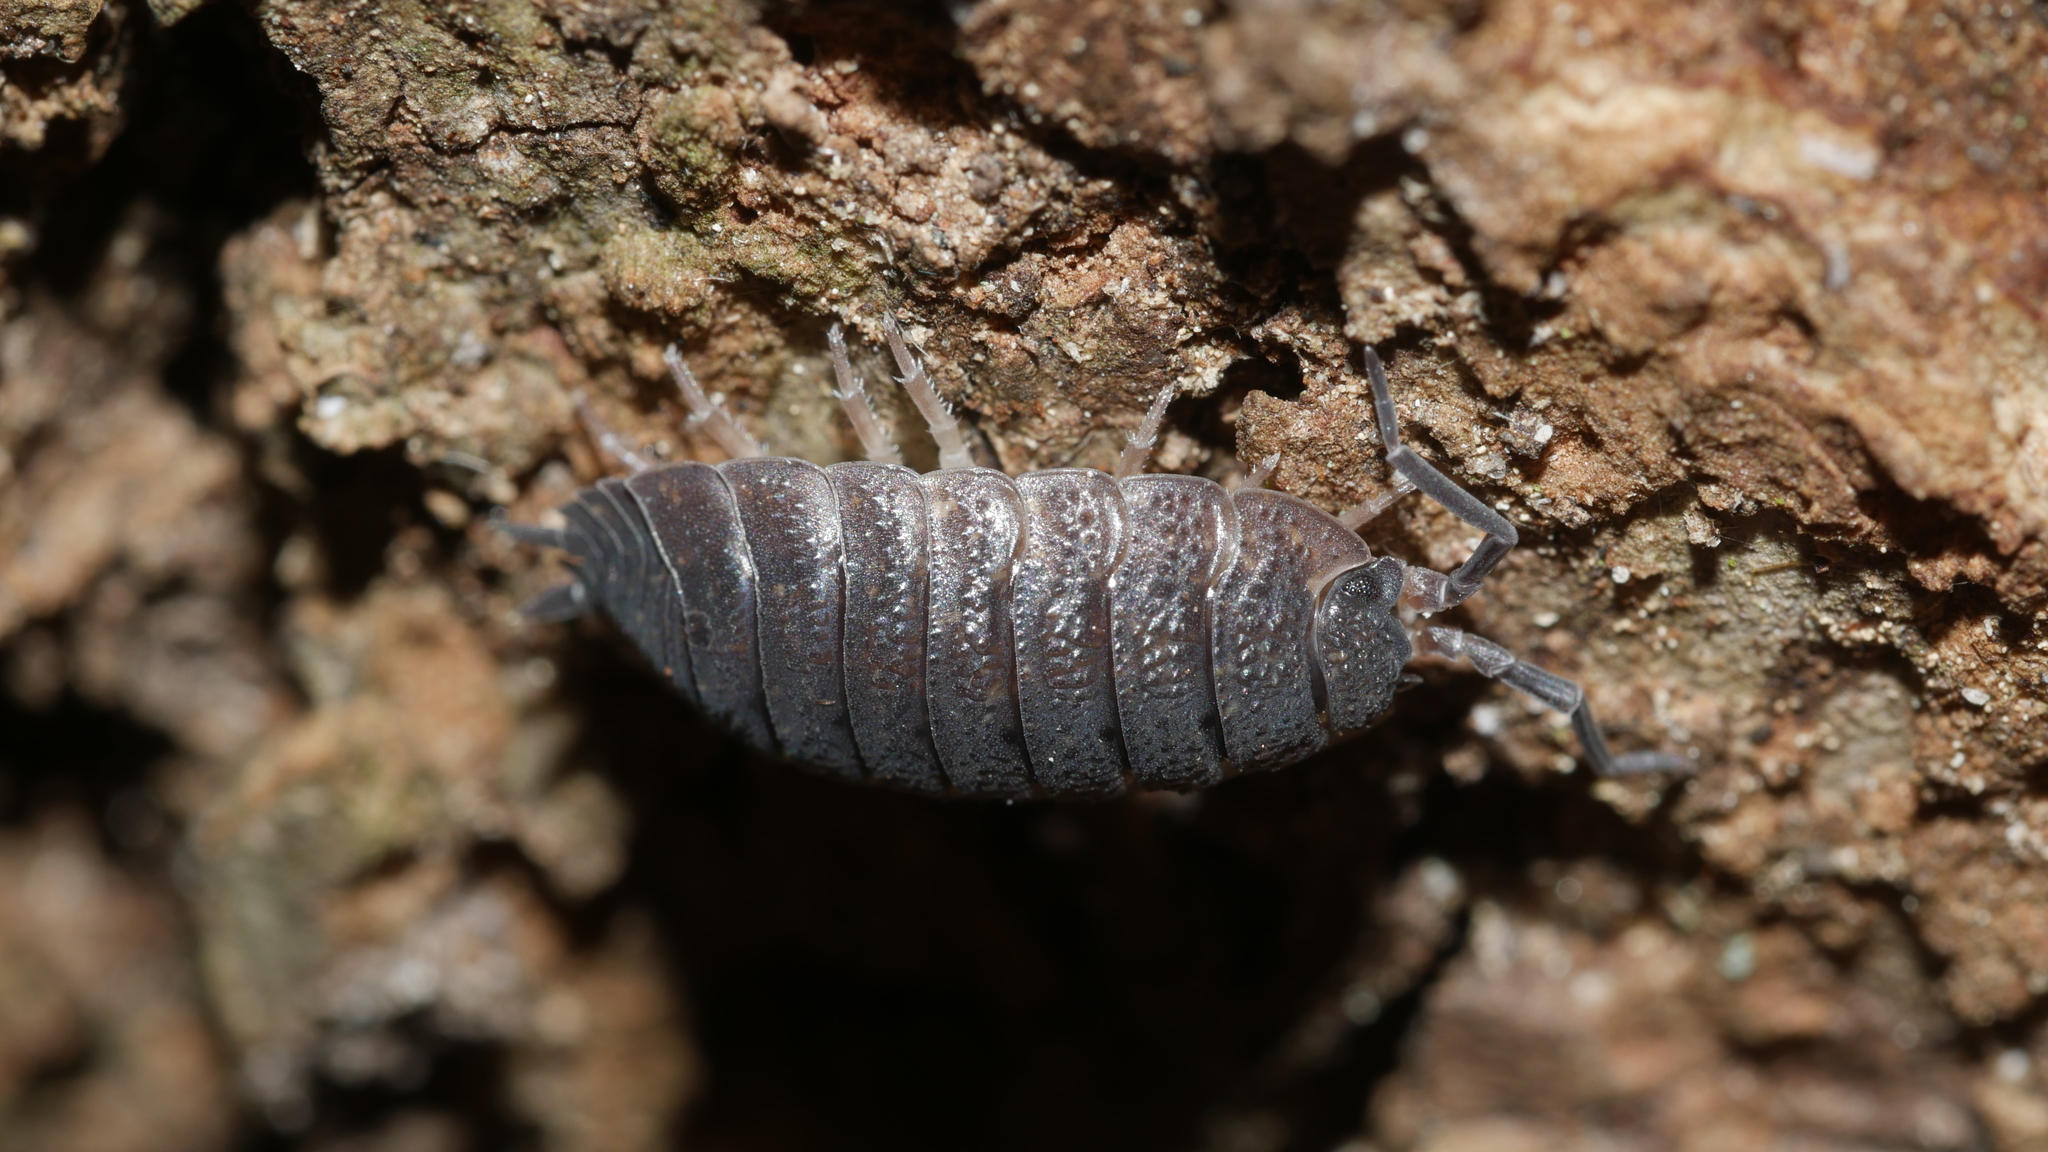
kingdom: Animalia
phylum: Arthropoda
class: Malacostraca
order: Isopoda
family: Porcellionidae
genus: Porcellio
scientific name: Porcellio scaber
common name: Common rough woodlouse
